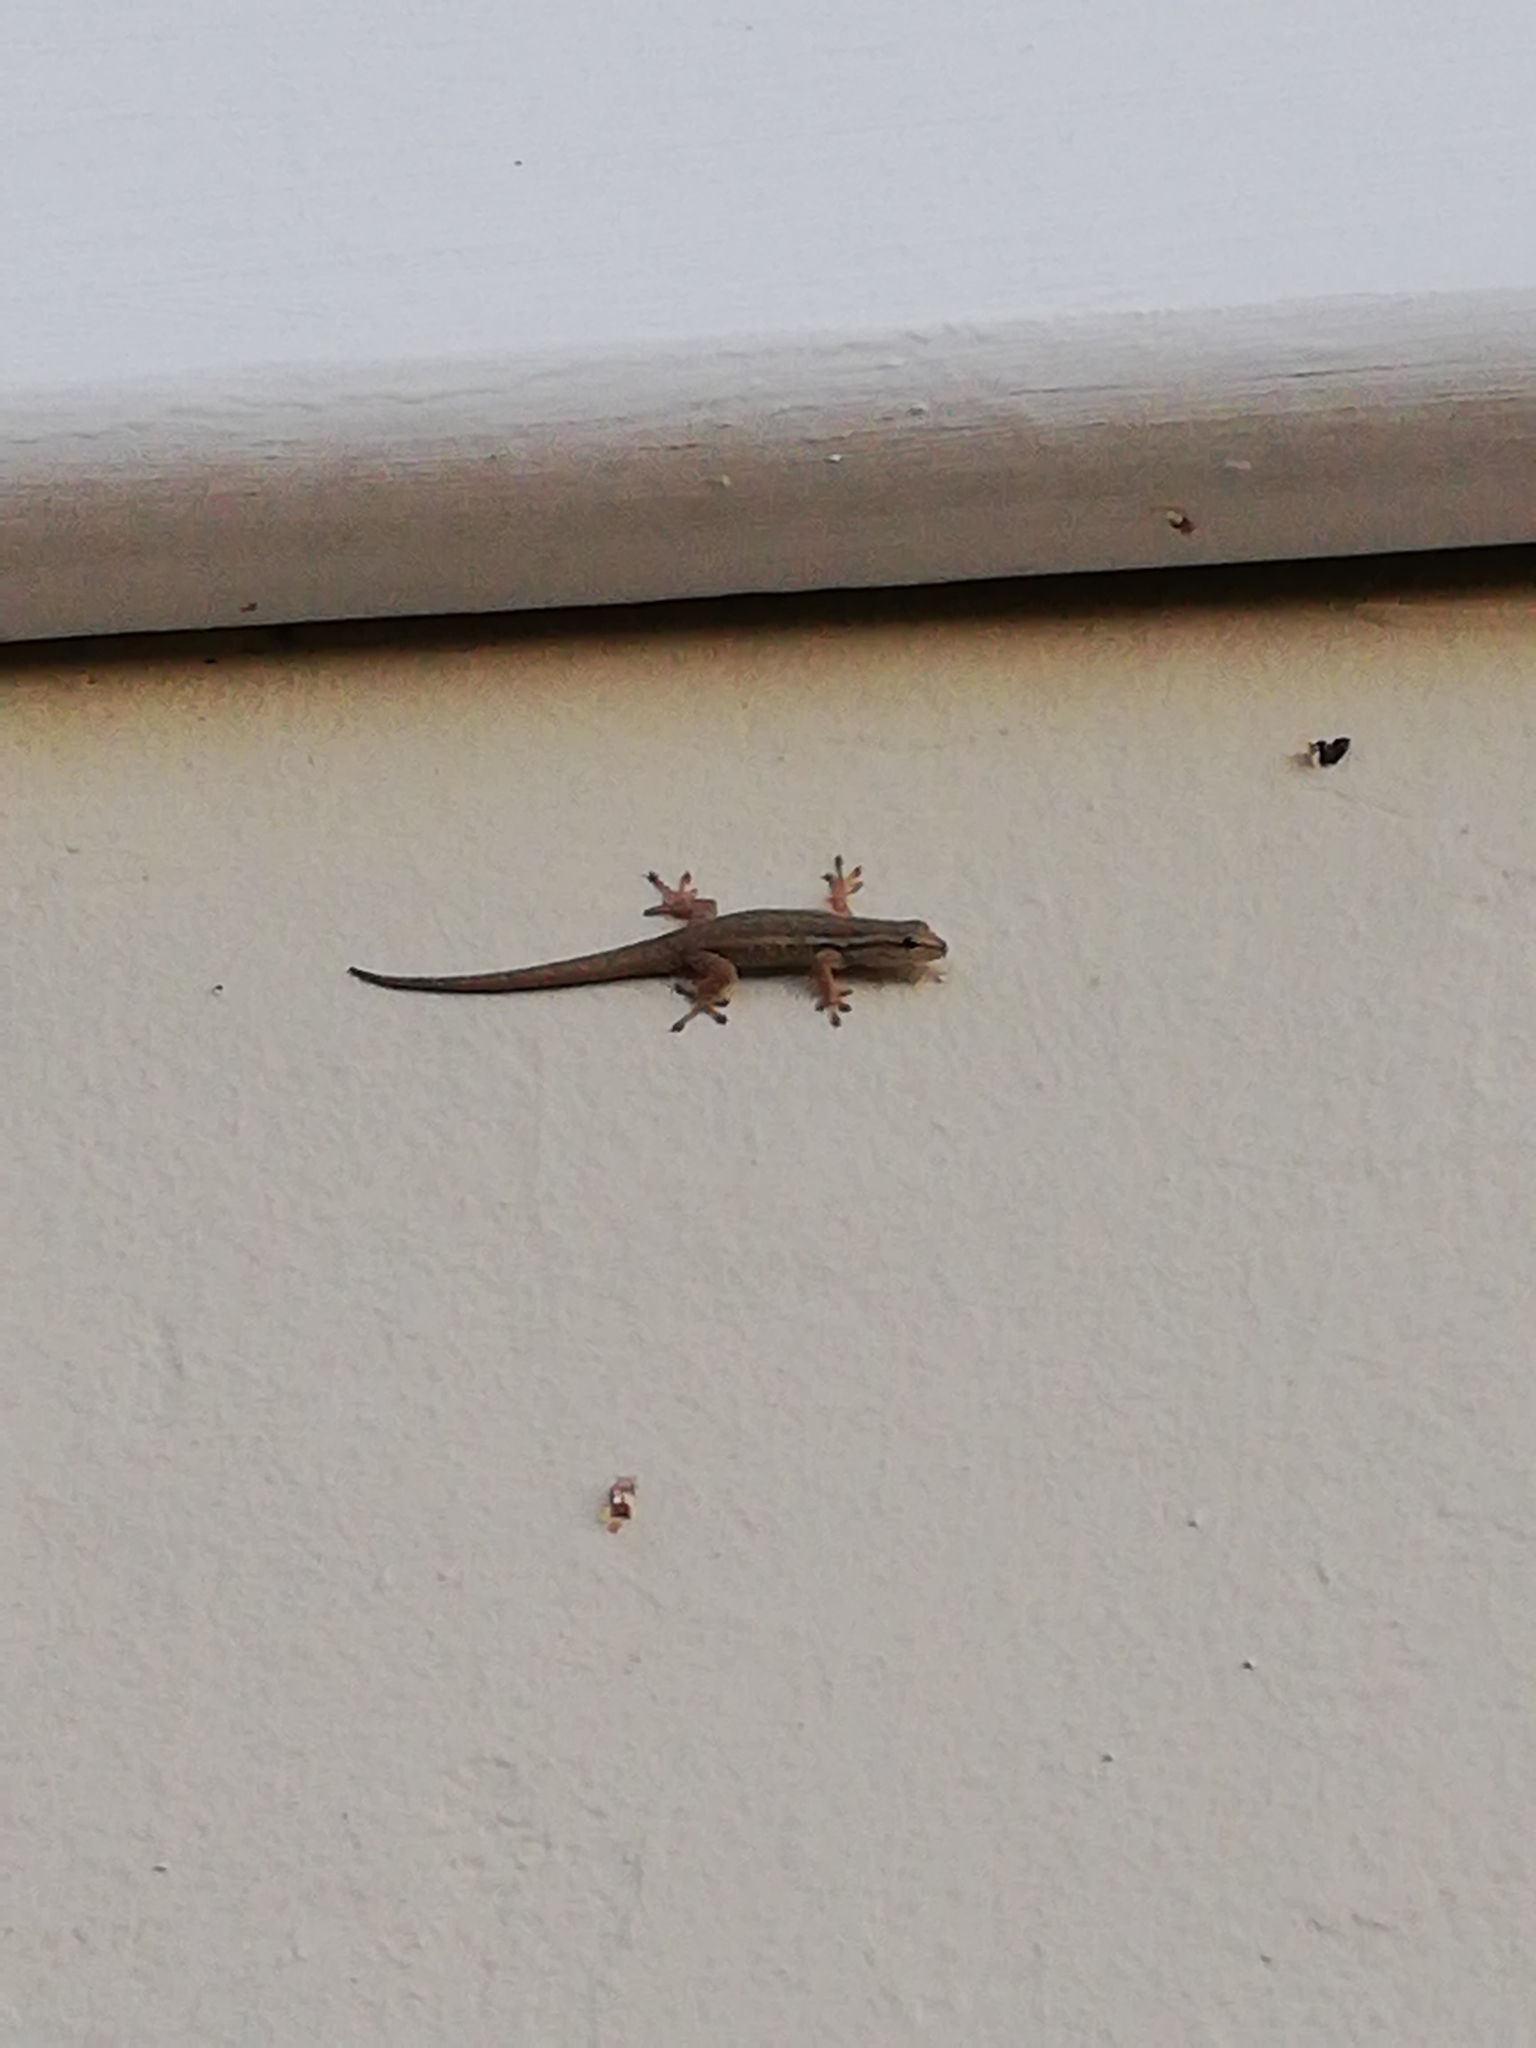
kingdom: Animalia
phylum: Chordata
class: Squamata
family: Gekkonidae
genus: Lygodactylus
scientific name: Lygodactylus capensis
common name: Cape dwarf gecko
